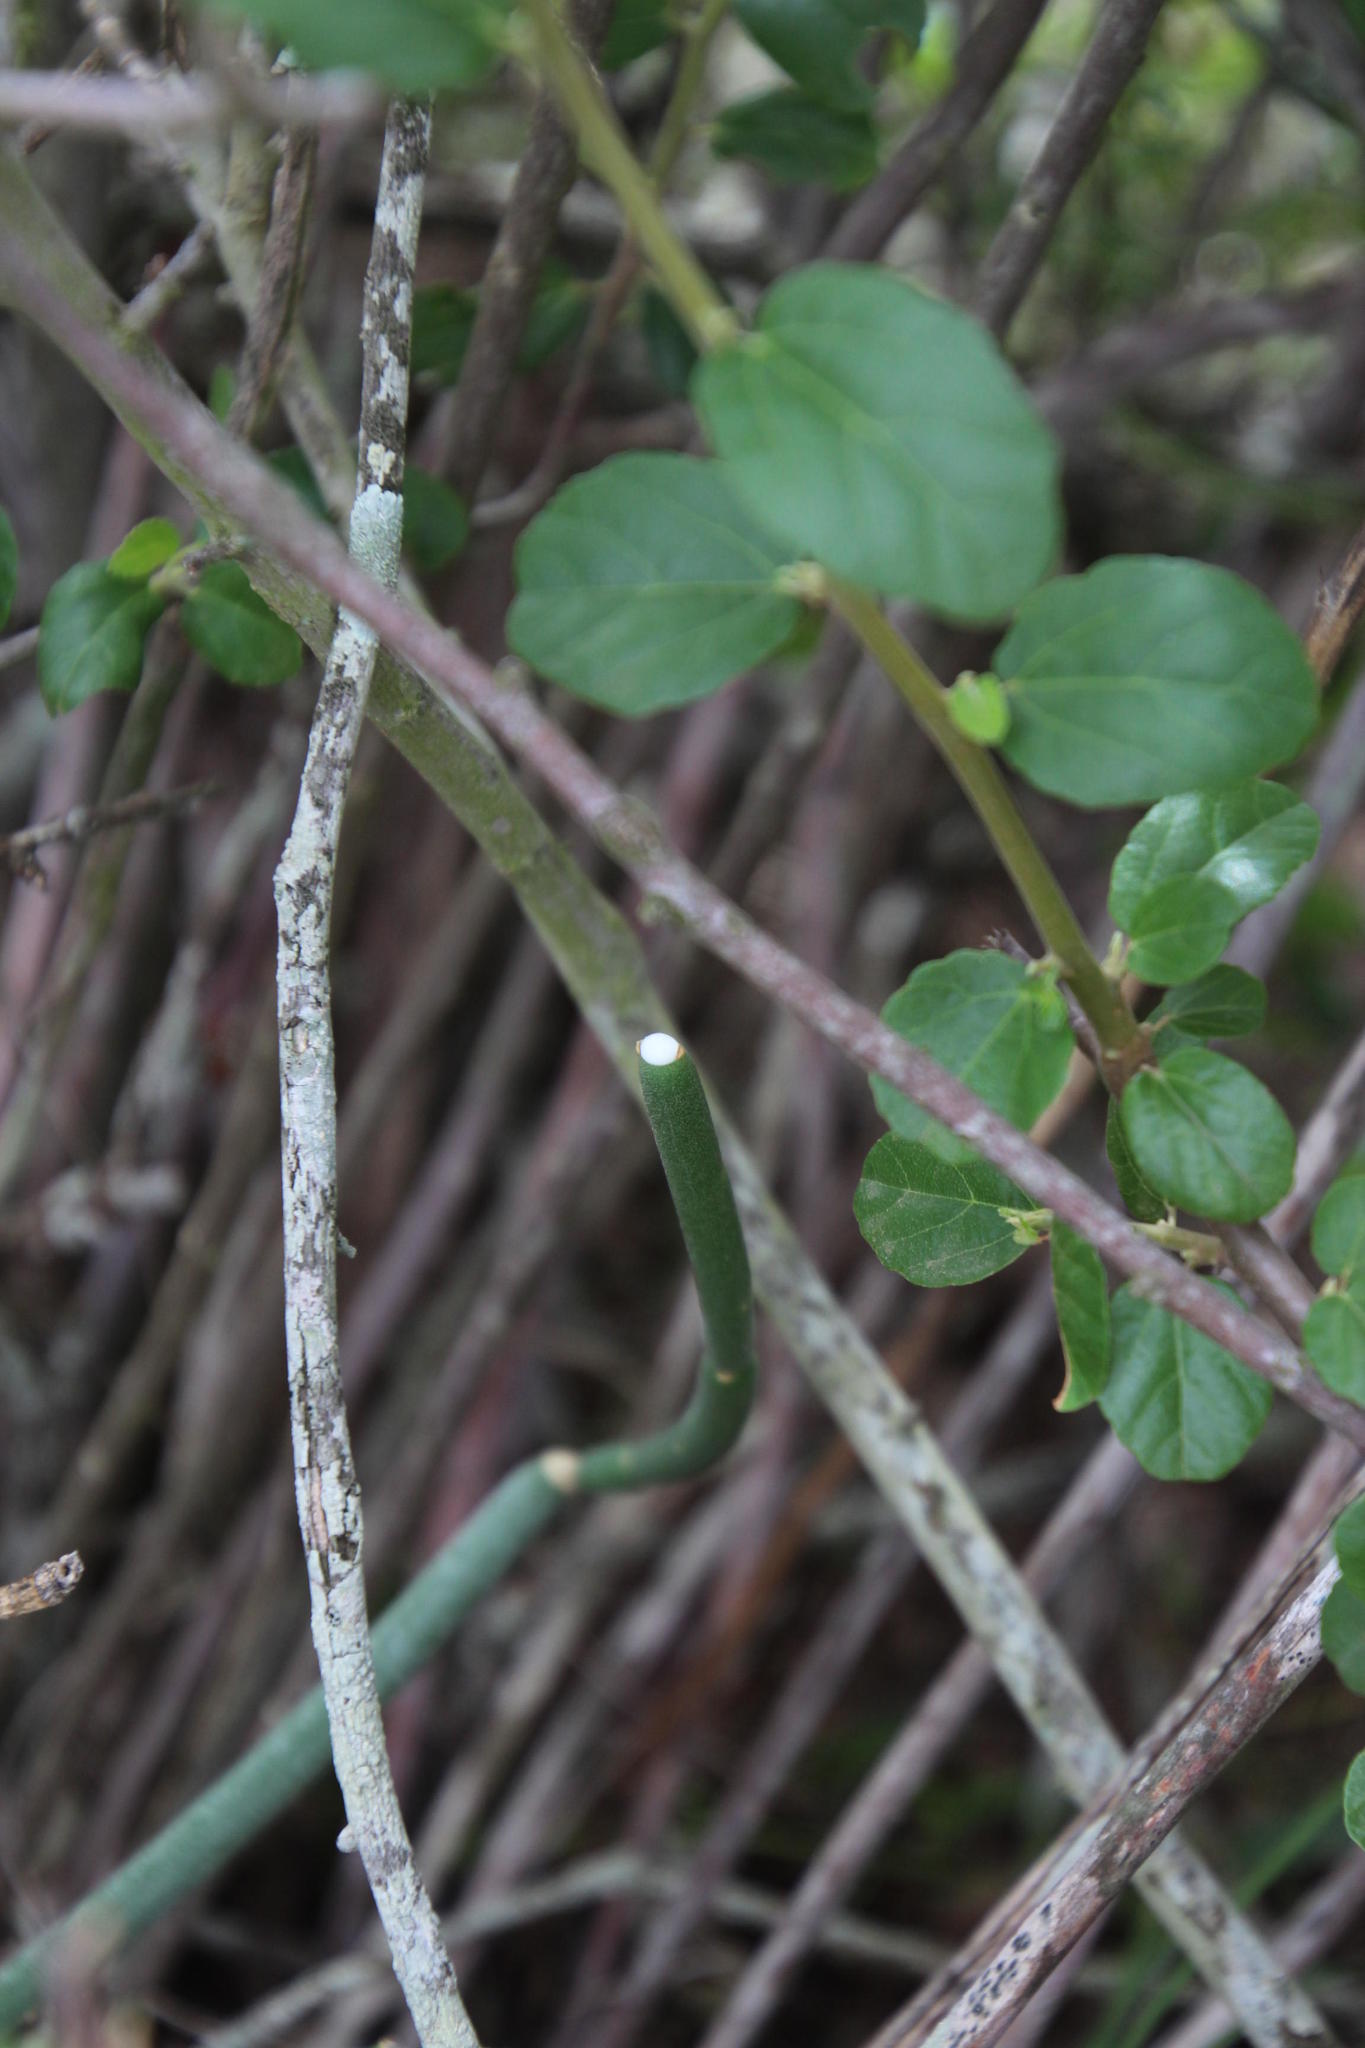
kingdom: Plantae
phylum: Tracheophyta
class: Magnoliopsida
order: Gentianales
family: Apocynaceae
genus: Cynanchum
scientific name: Cynanchum viminale
